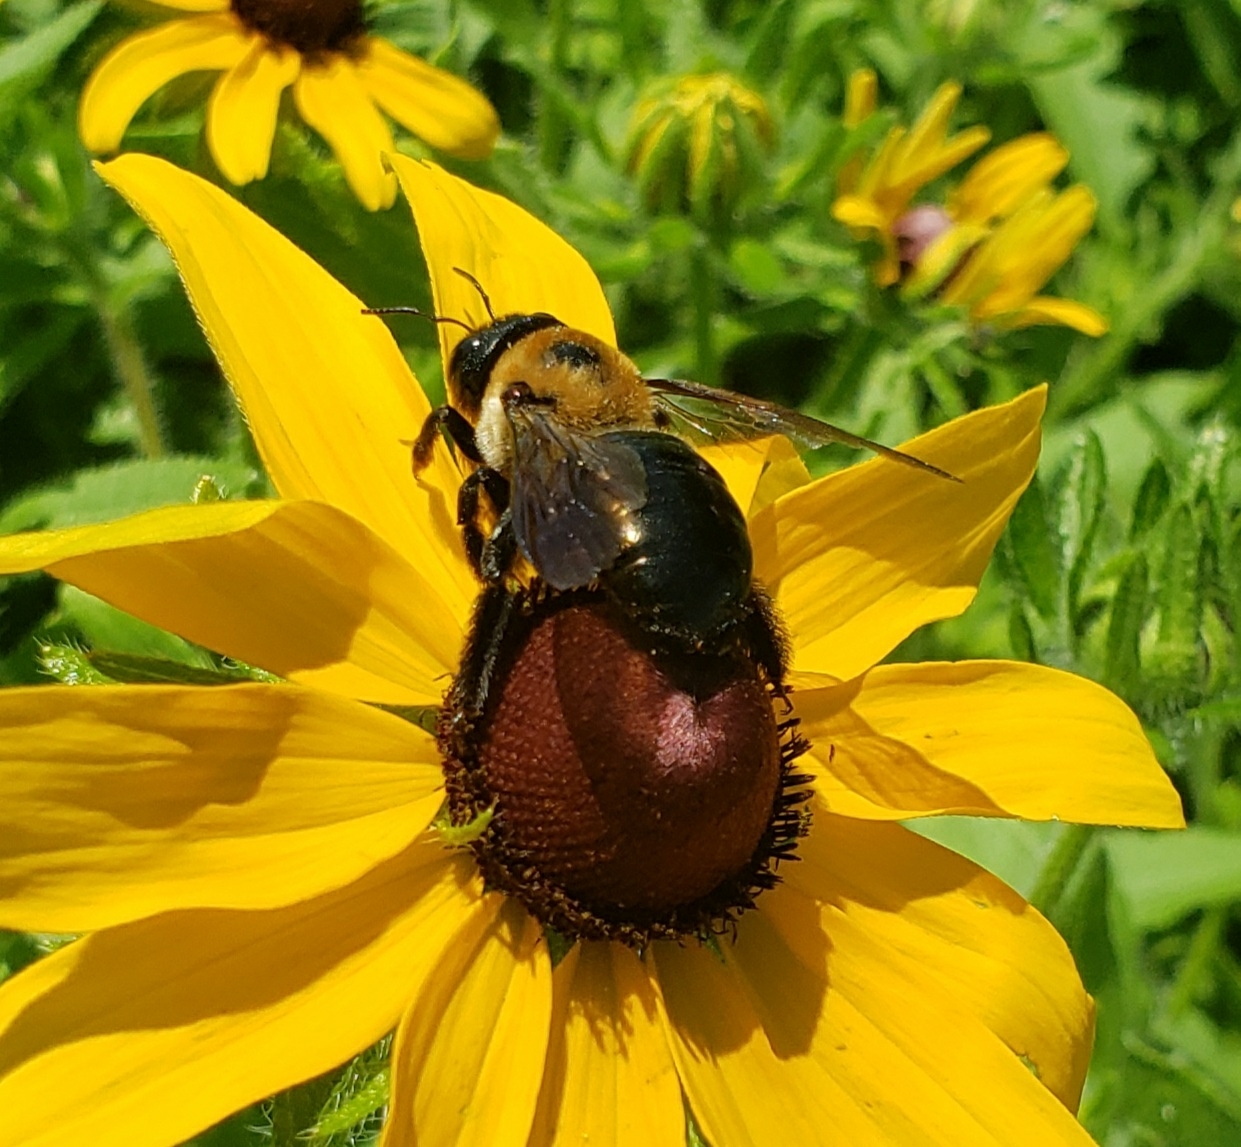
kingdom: Animalia
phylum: Arthropoda
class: Insecta
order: Hymenoptera
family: Apidae
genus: Xylocopa
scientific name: Xylocopa virginica
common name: Carpenter bee
